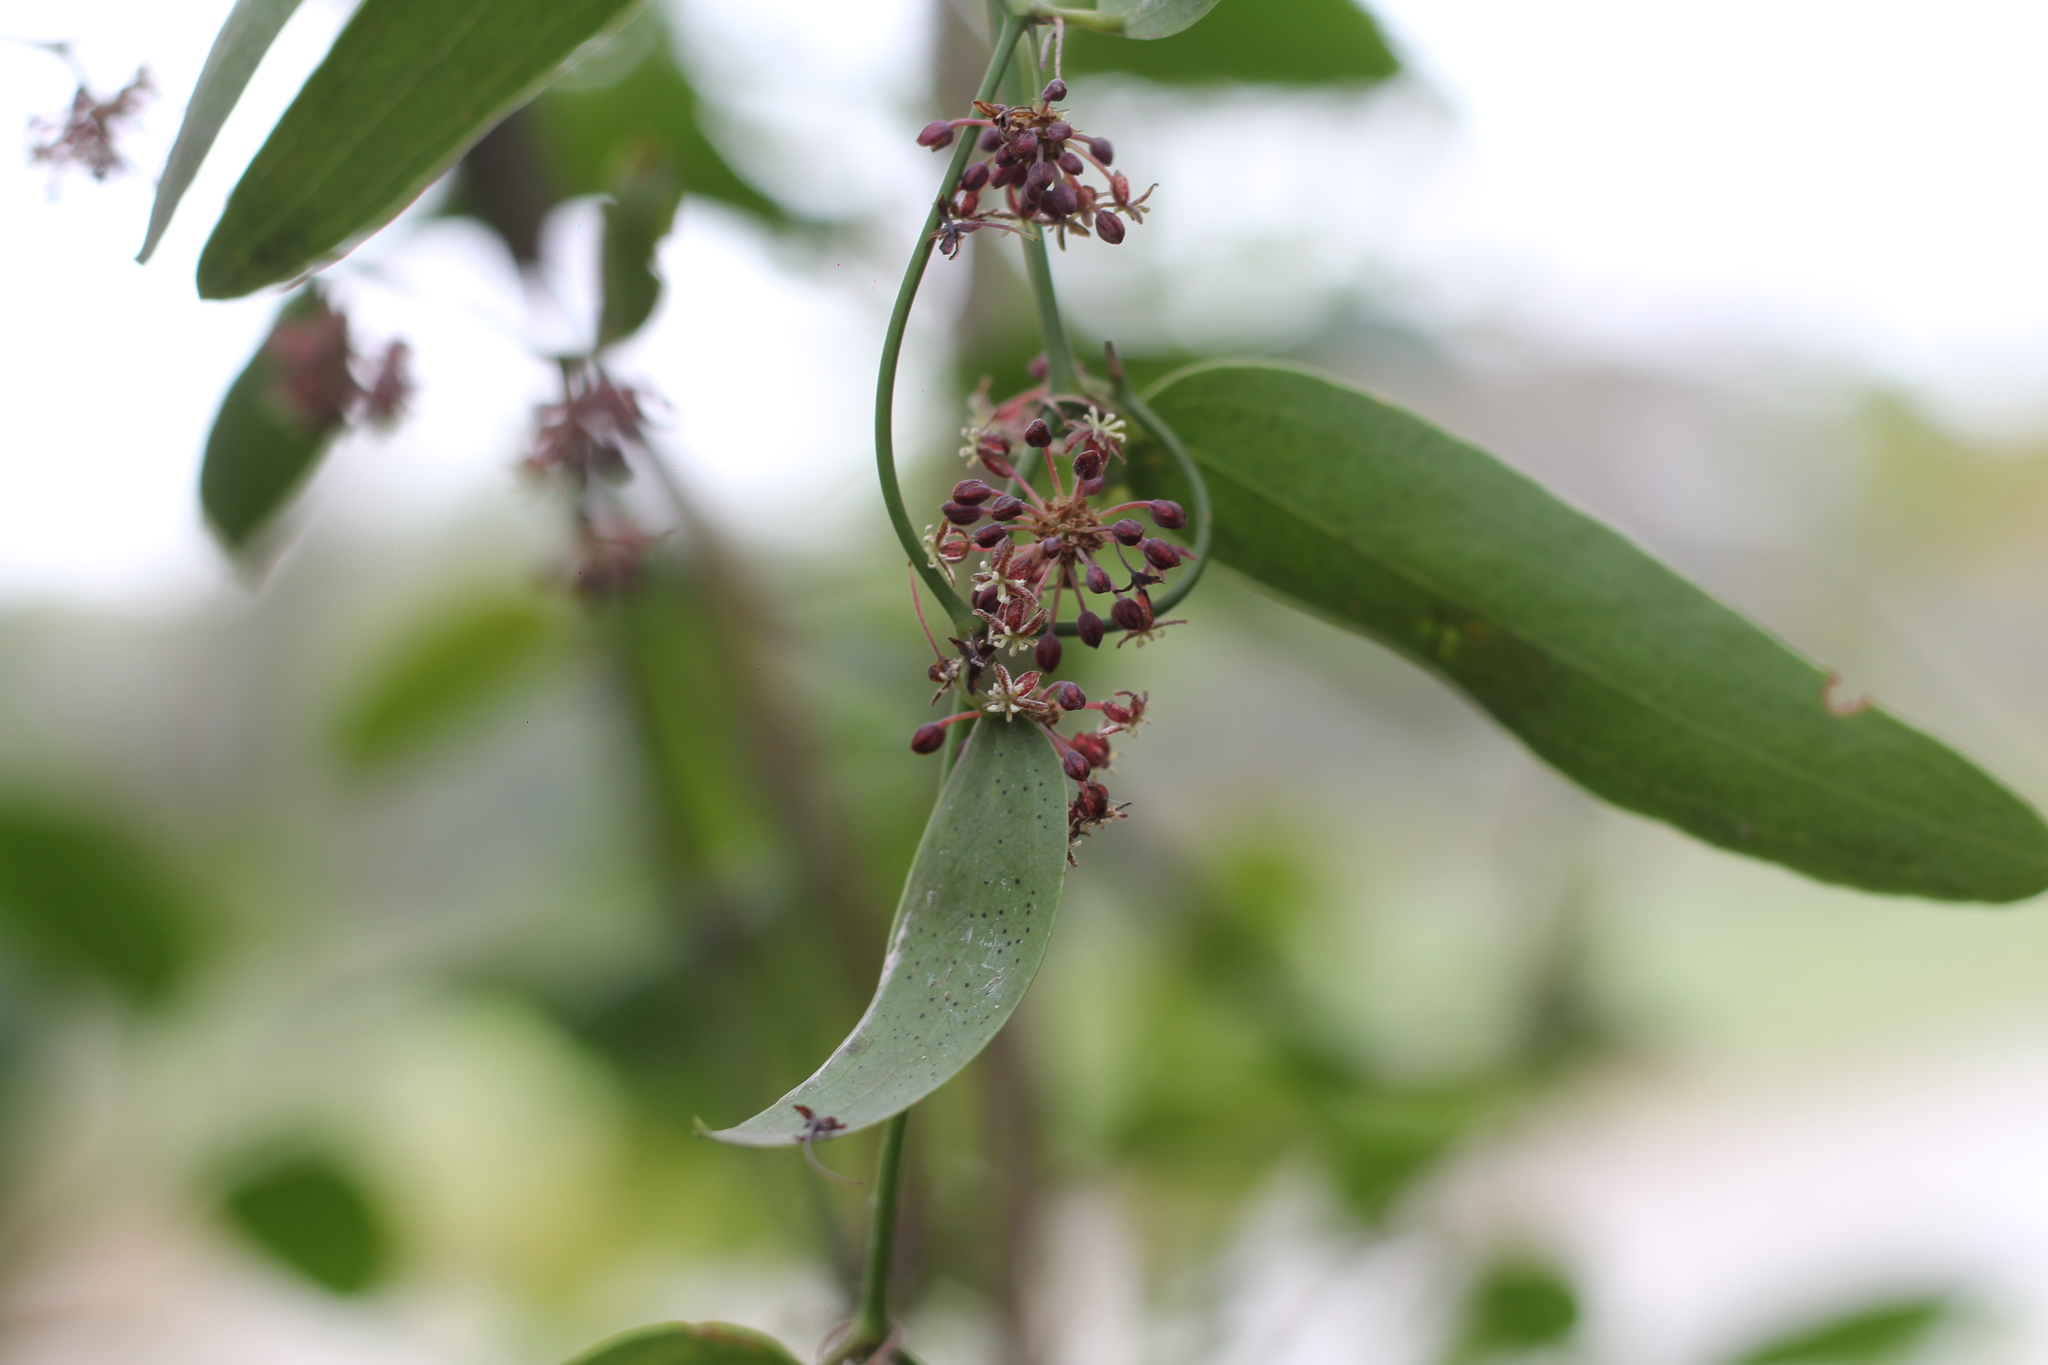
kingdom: Plantae
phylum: Tracheophyta
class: Liliopsida
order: Liliales
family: Smilacaceae
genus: Smilax
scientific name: Smilax campestris
